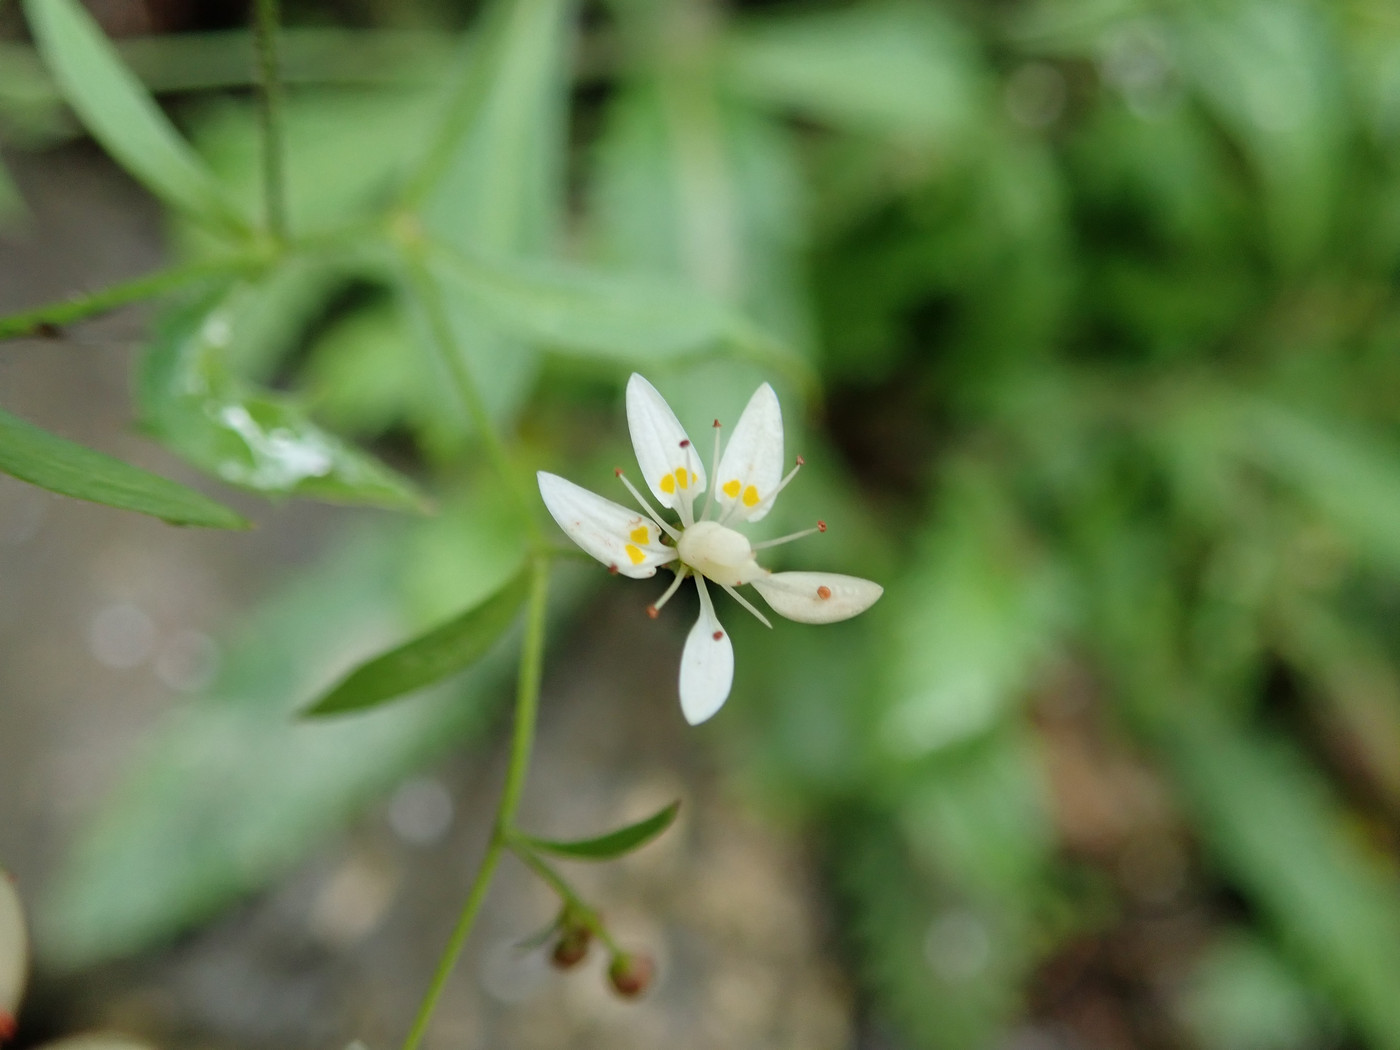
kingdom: Plantae
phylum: Tracheophyta
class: Magnoliopsida
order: Saxifragales
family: Saxifragaceae
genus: Micranthes
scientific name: Micranthes petiolaris
